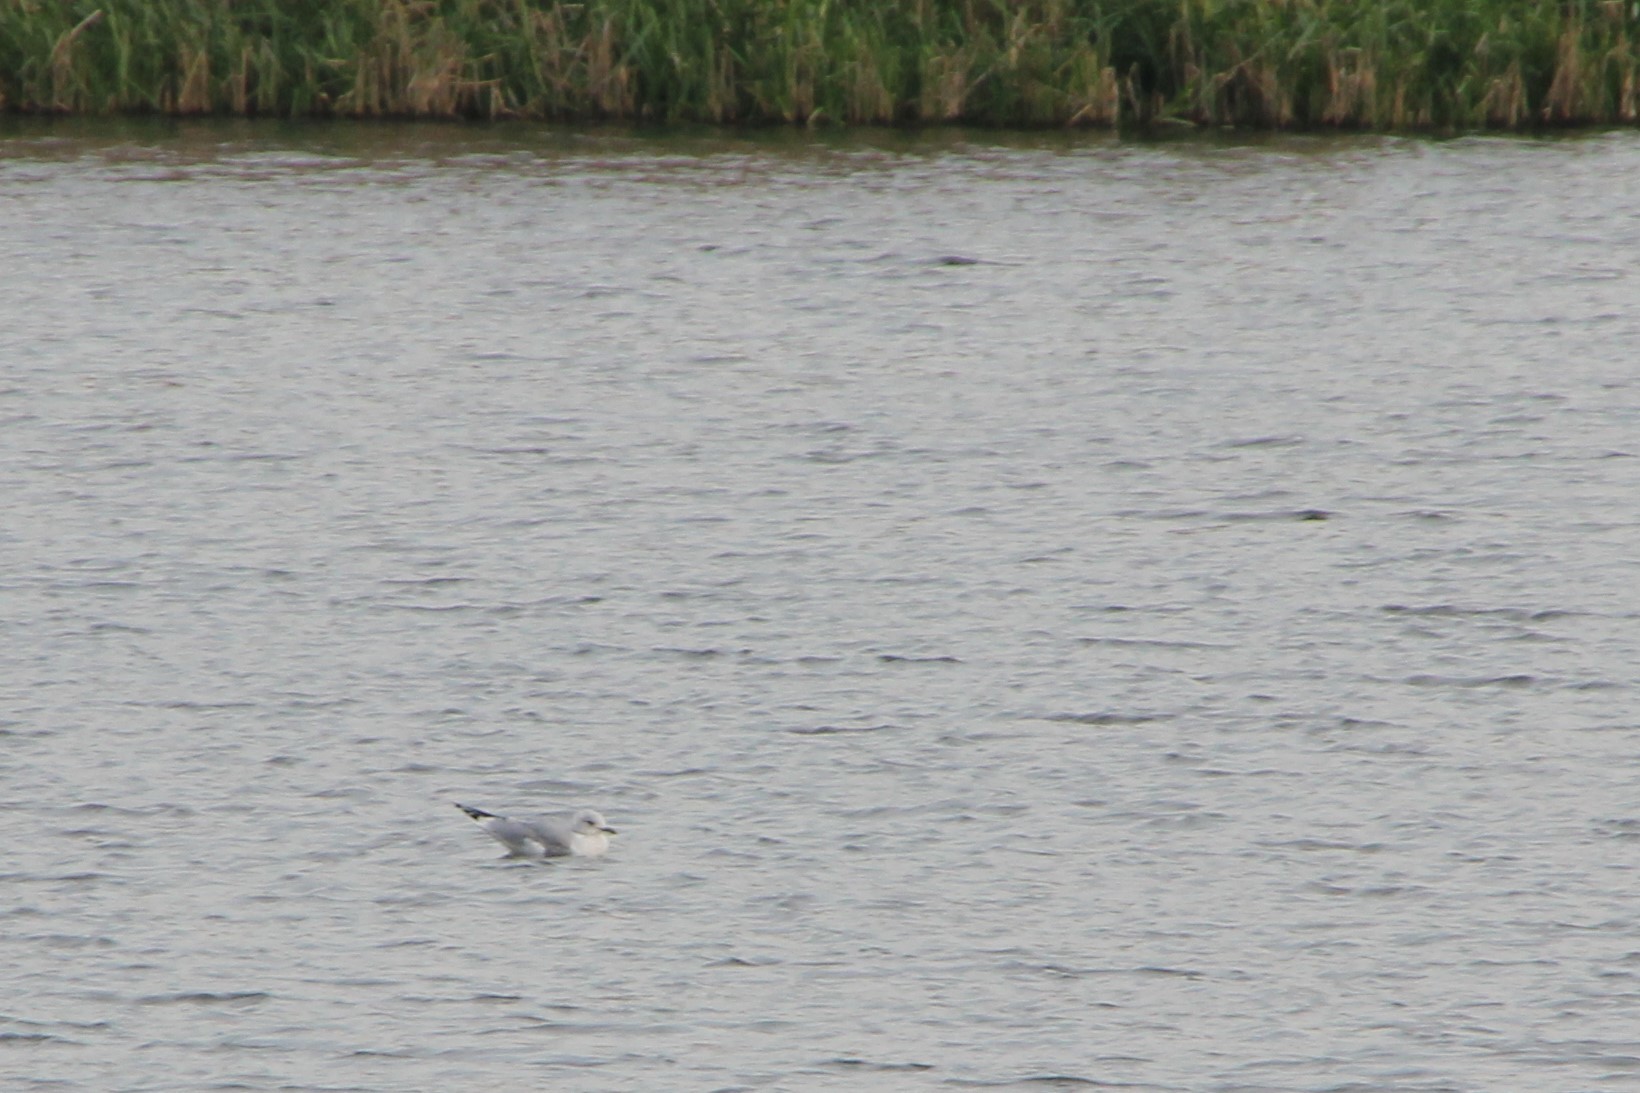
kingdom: Animalia
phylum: Chordata
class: Aves
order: Charadriiformes
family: Laridae
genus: Larus
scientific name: Larus canus
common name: Mew gull
